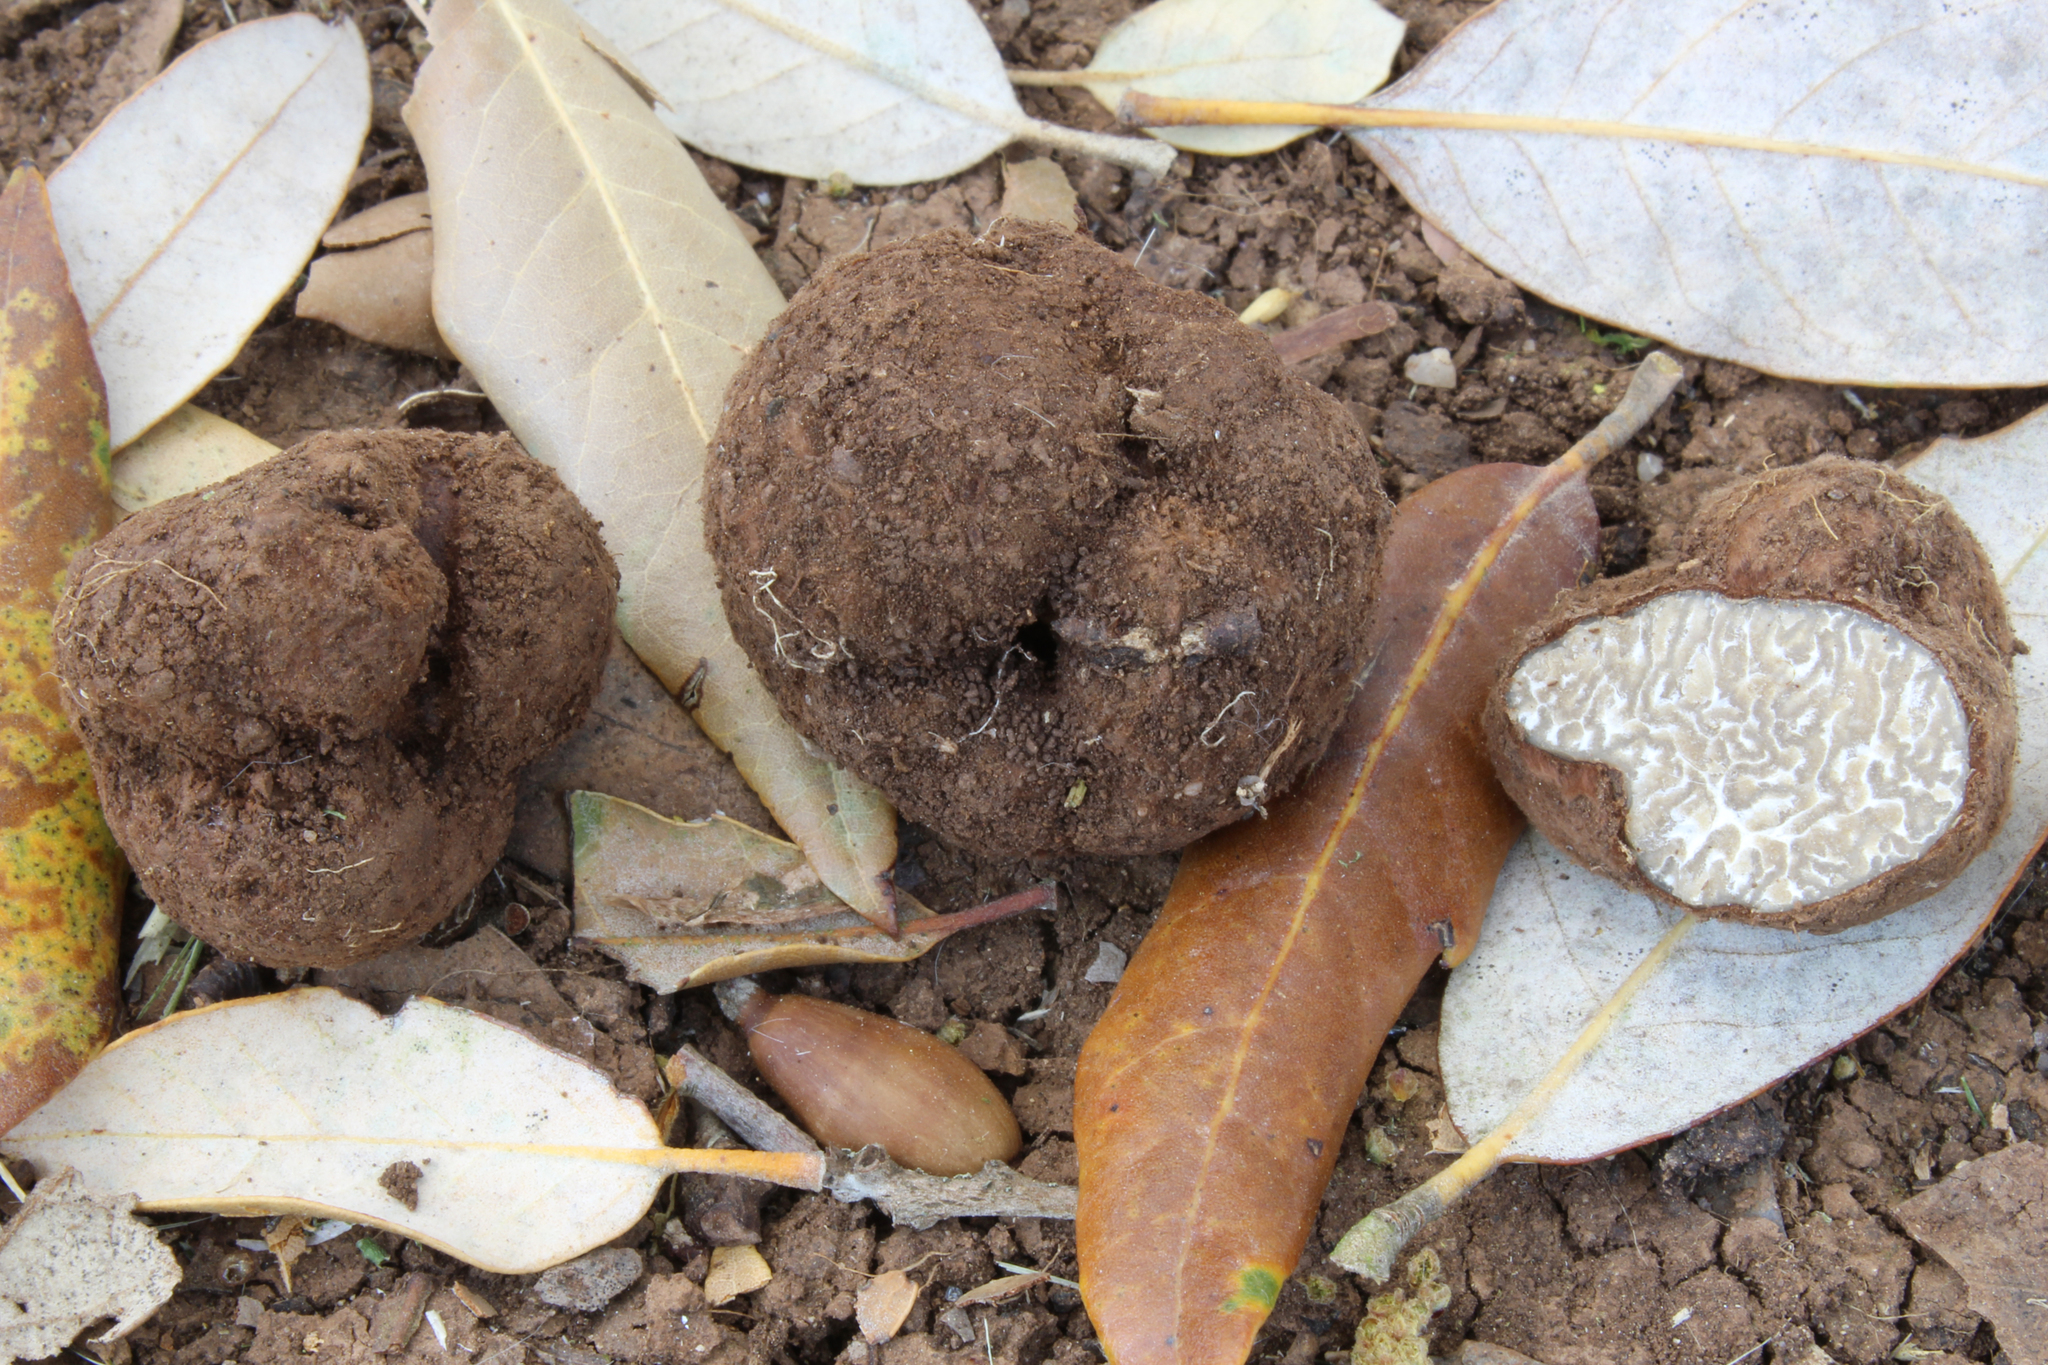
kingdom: Fungi
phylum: Ascomycota
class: Pezizomycetes
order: Pezizales
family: Tuberaceae
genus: Tuber
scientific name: Tuber panniferum
